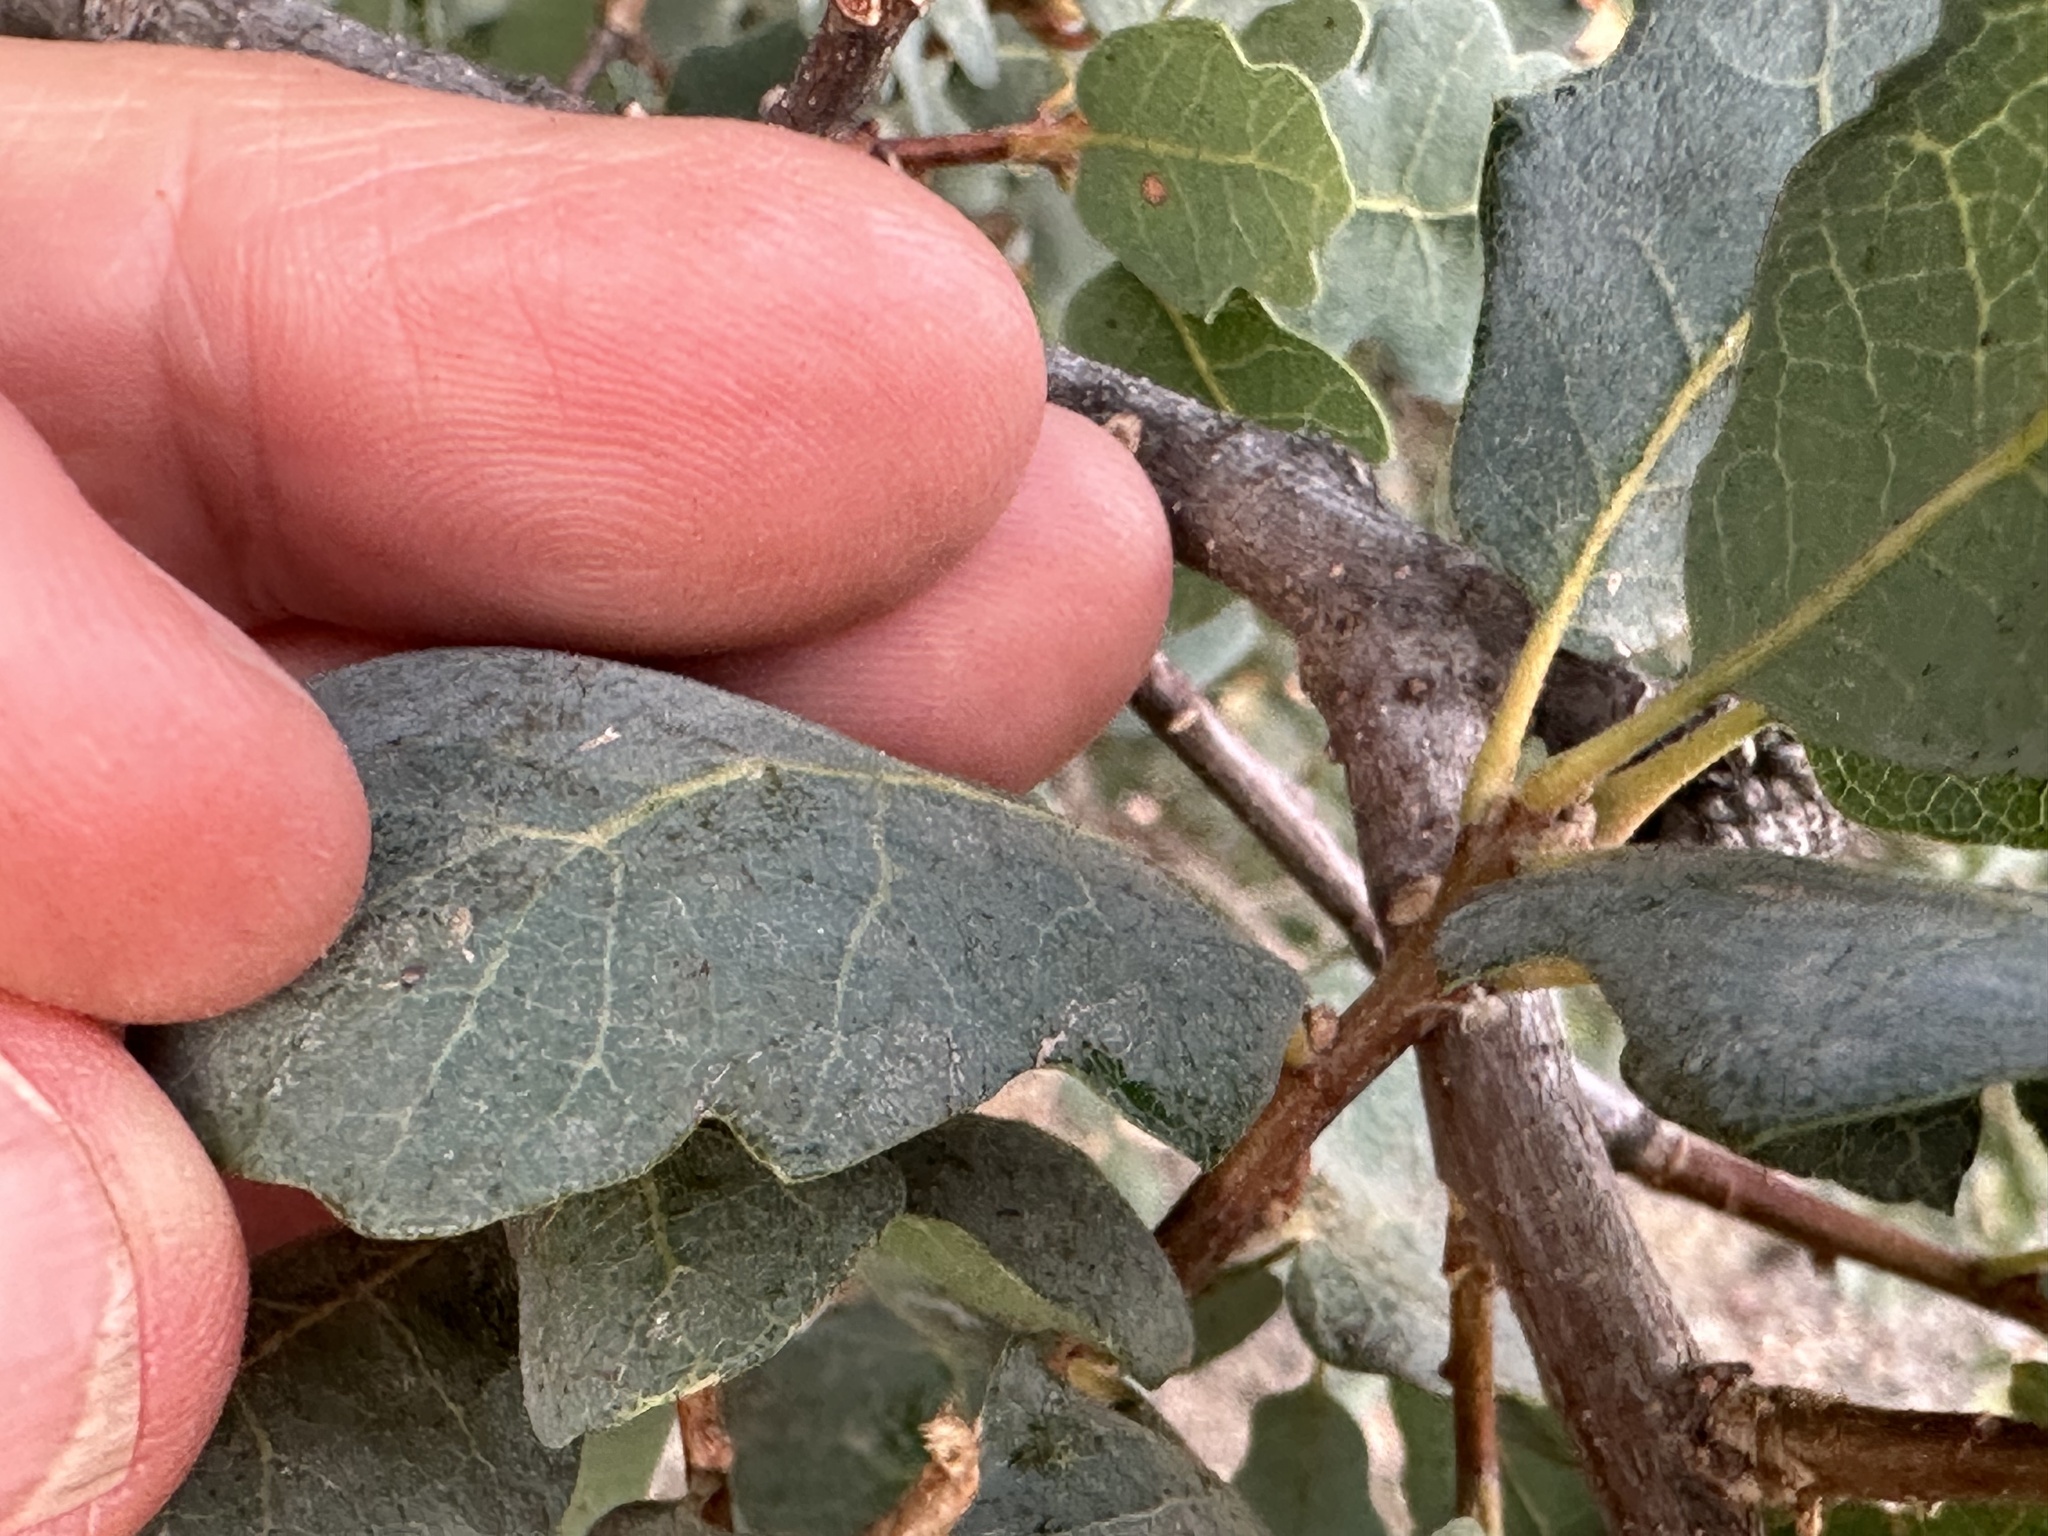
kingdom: Animalia
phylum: Arthropoda
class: Insecta
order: Hymenoptera
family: Cynipidae
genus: Cynips
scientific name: Cynips
